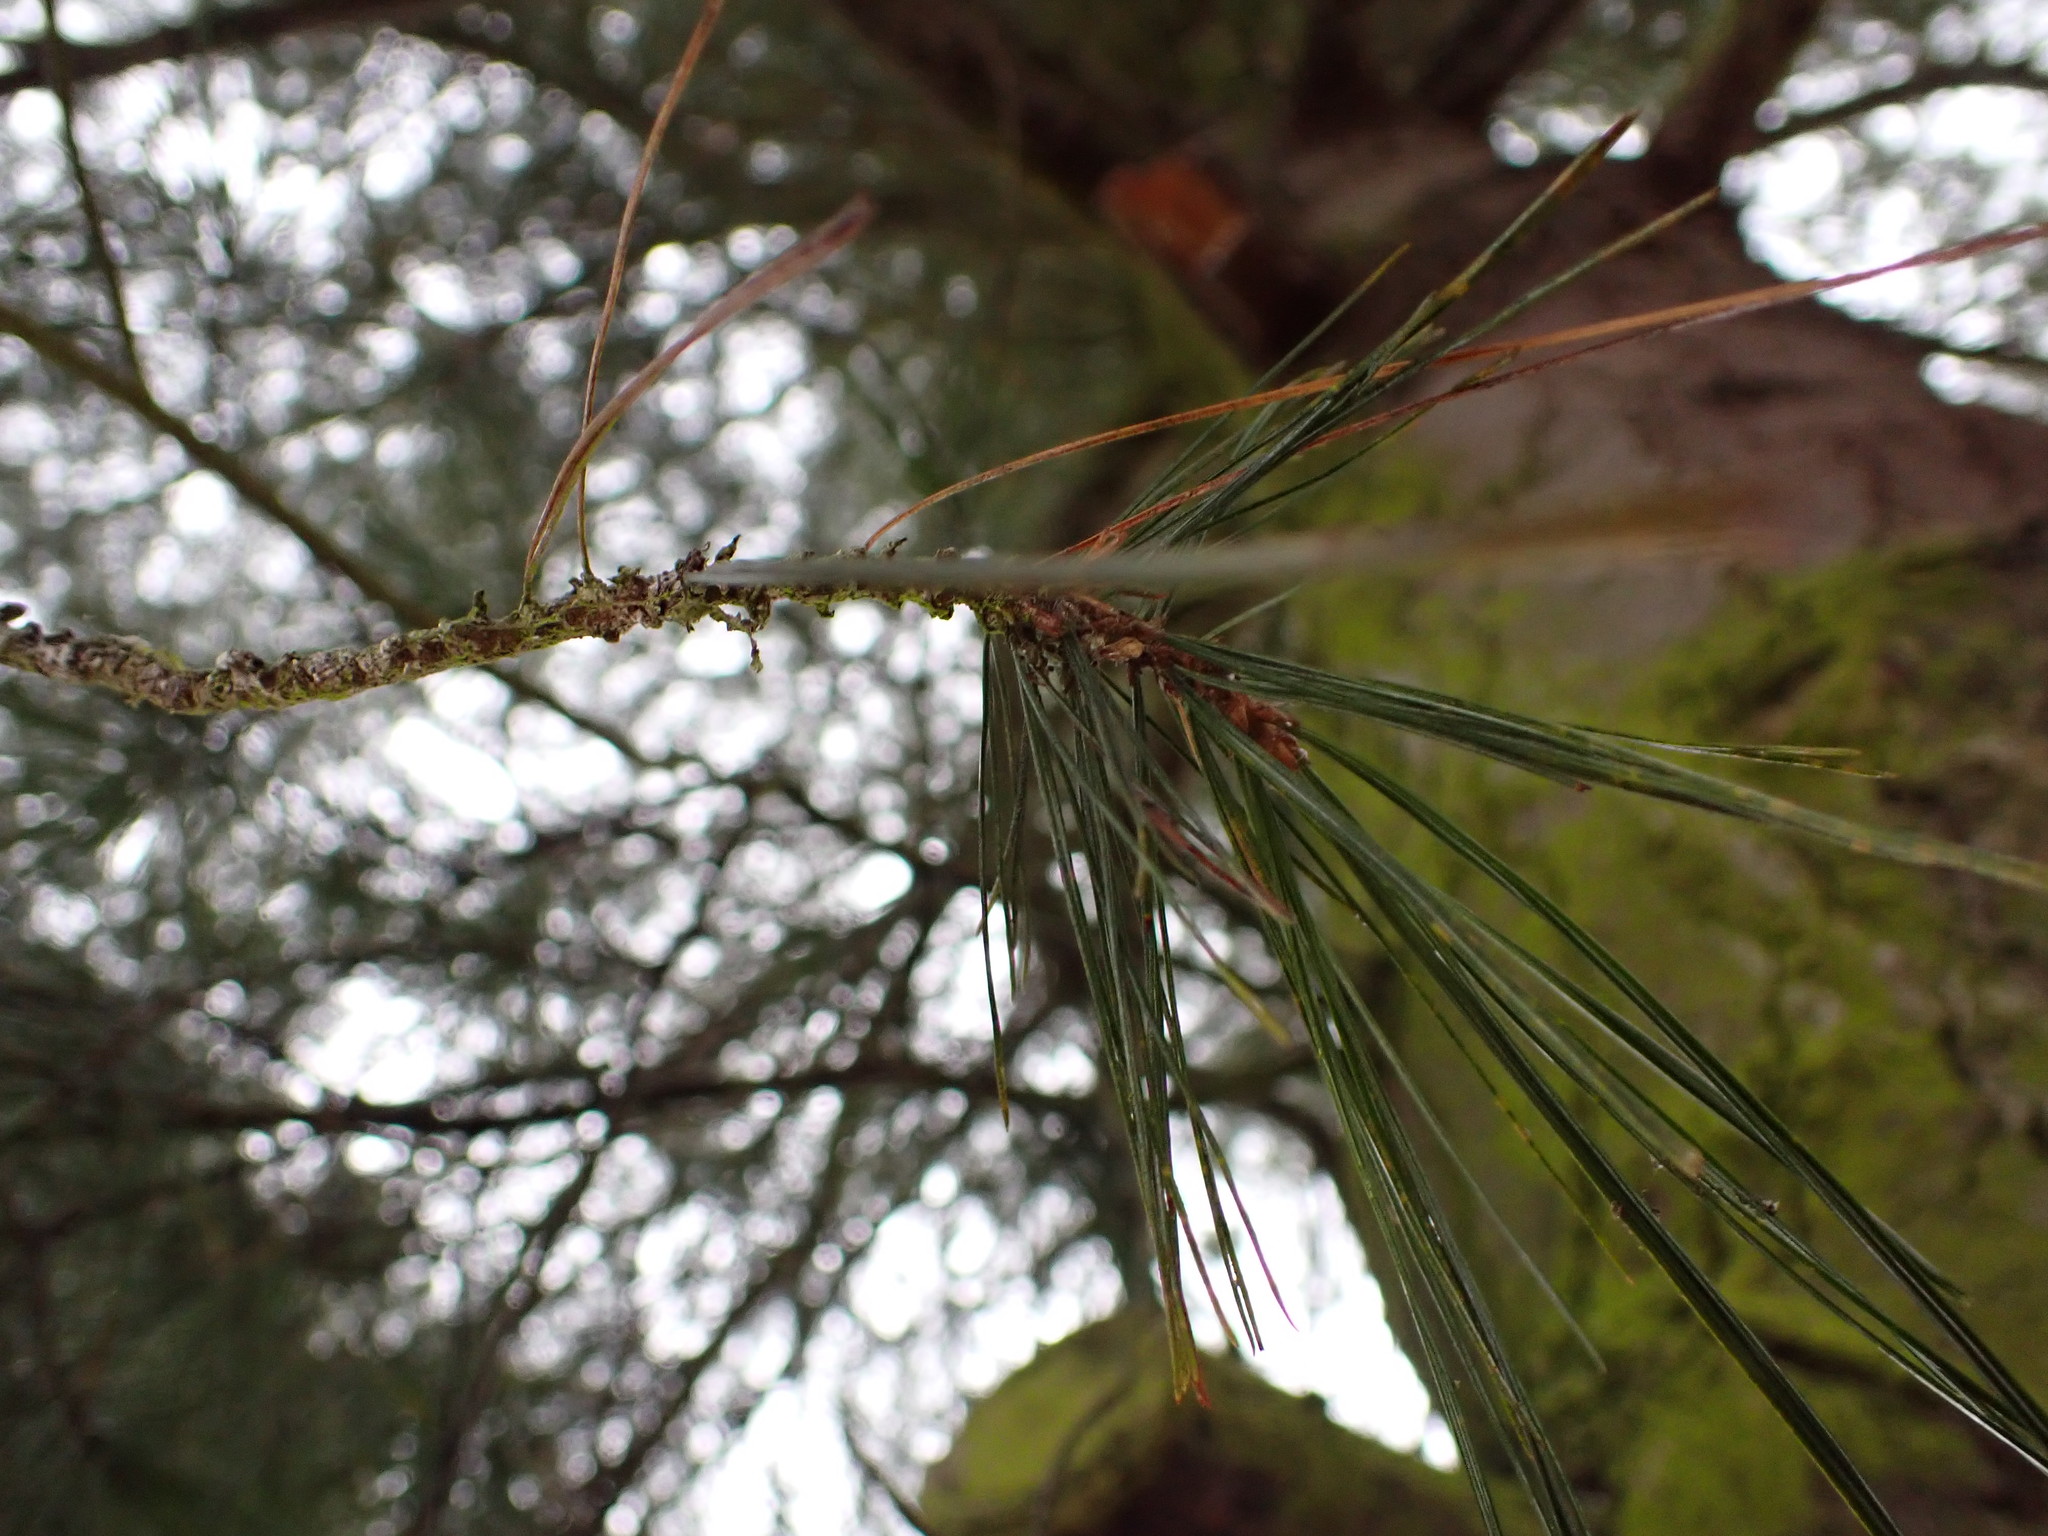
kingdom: Plantae
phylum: Tracheophyta
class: Pinopsida
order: Pinales
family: Pinaceae
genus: Pinus
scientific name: Pinus strobus
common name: Weymouth pine
